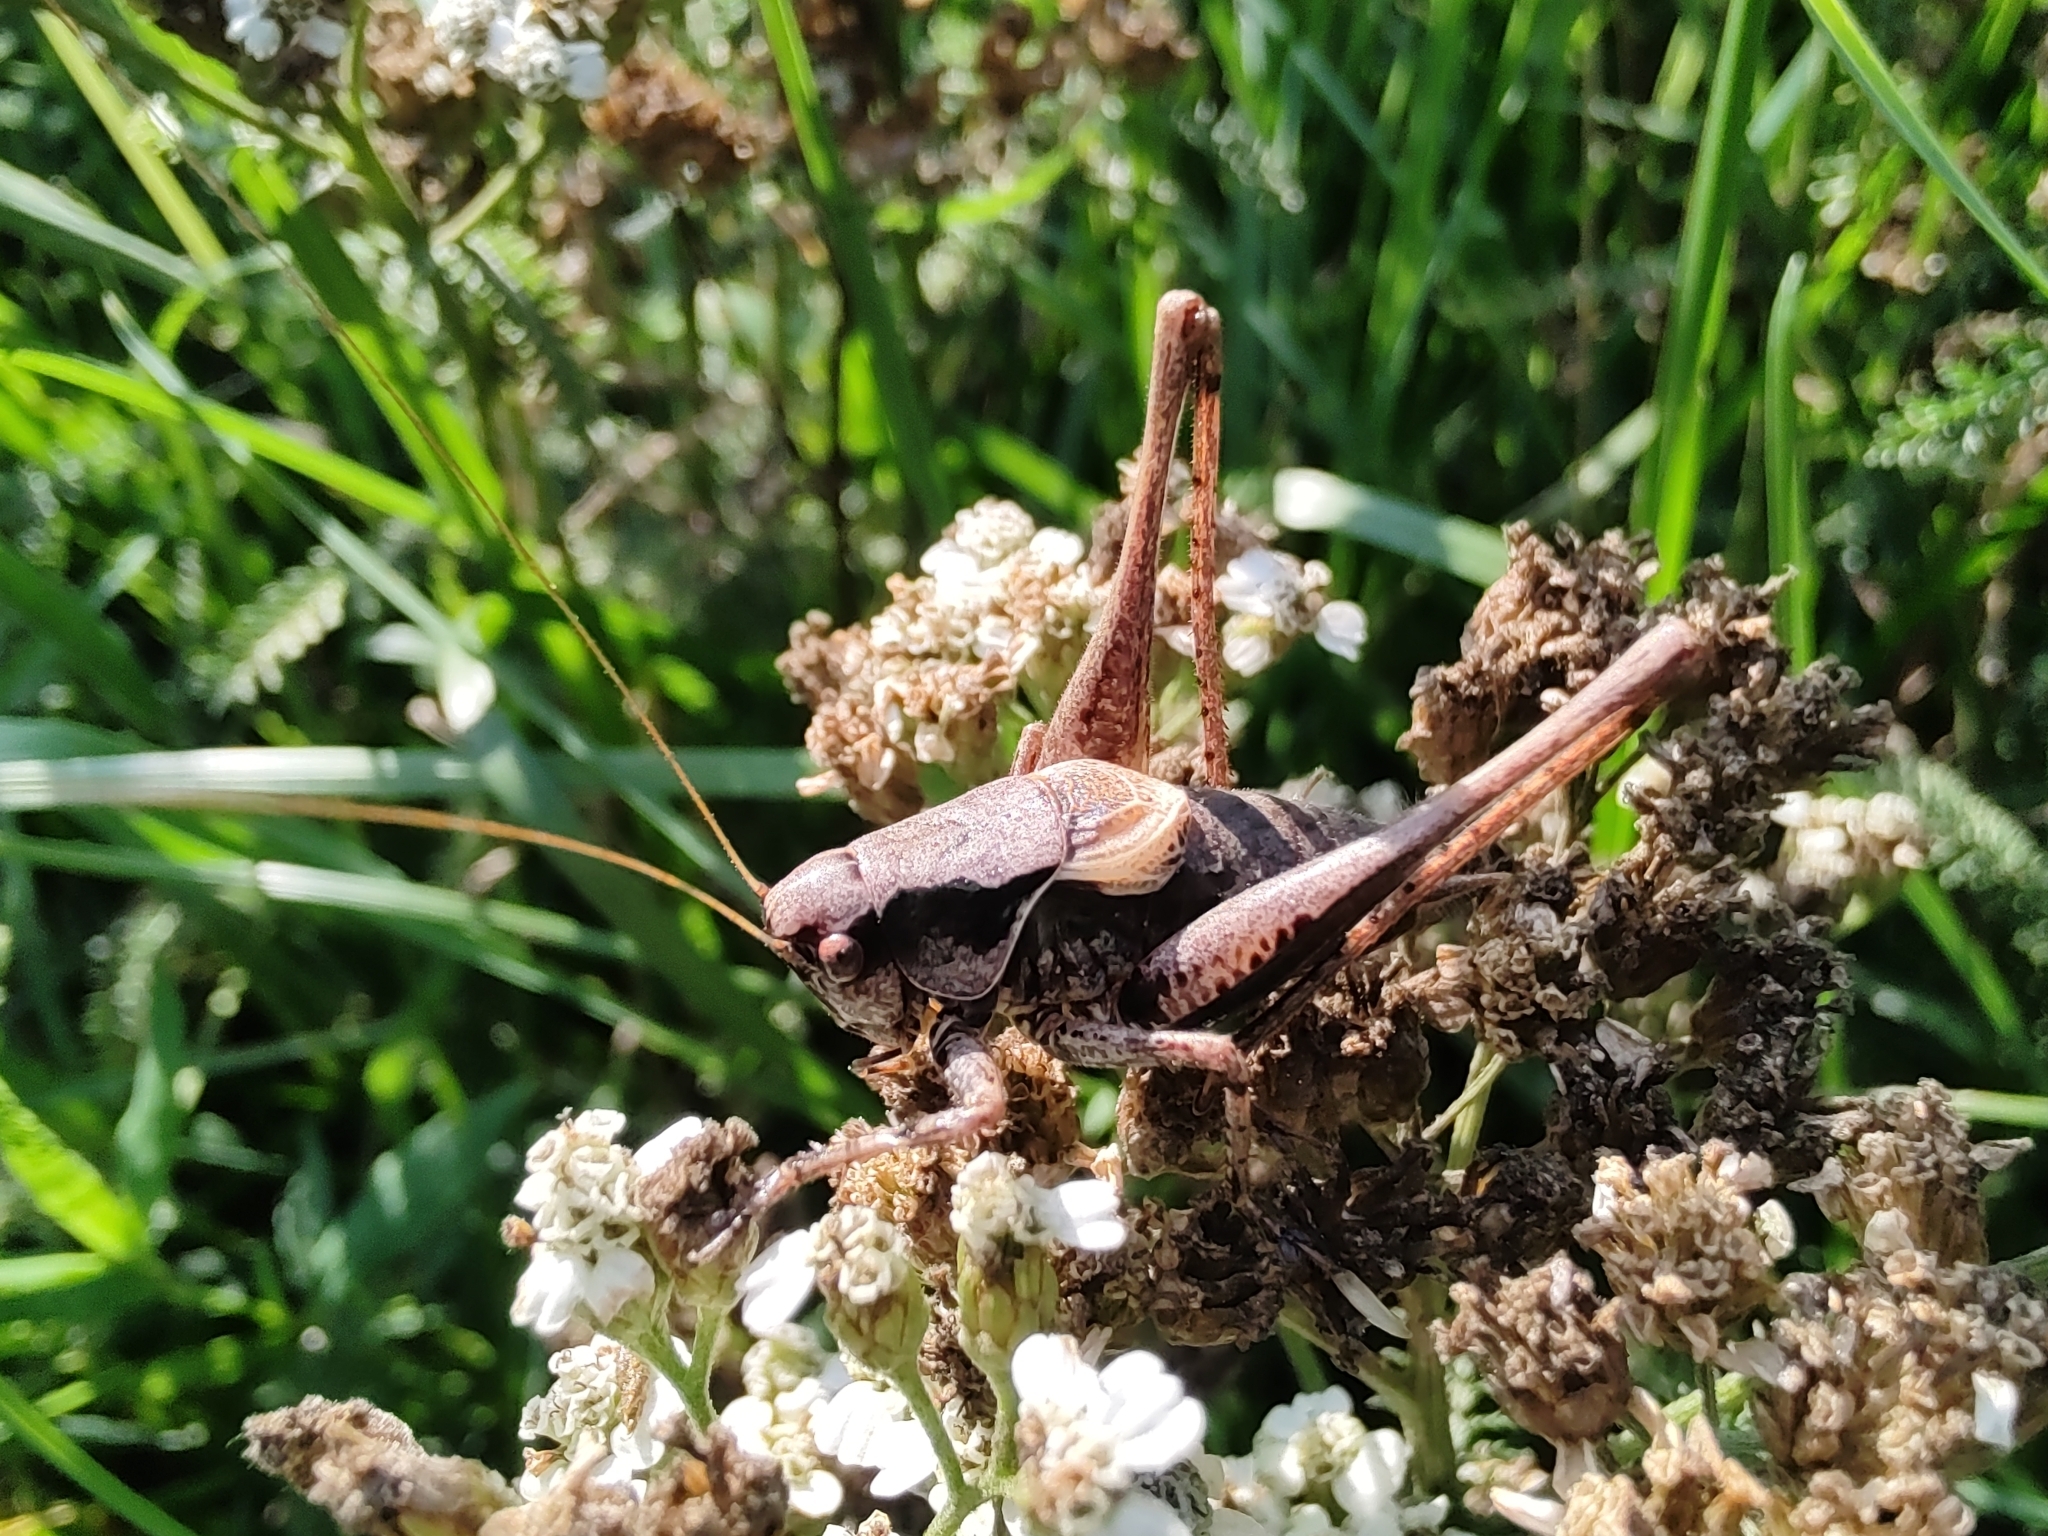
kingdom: Animalia
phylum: Arthropoda
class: Insecta
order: Orthoptera
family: Tettigoniidae
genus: Pholidoptera
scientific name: Pholidoptera griseoaptera
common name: Dark bush-cricket
